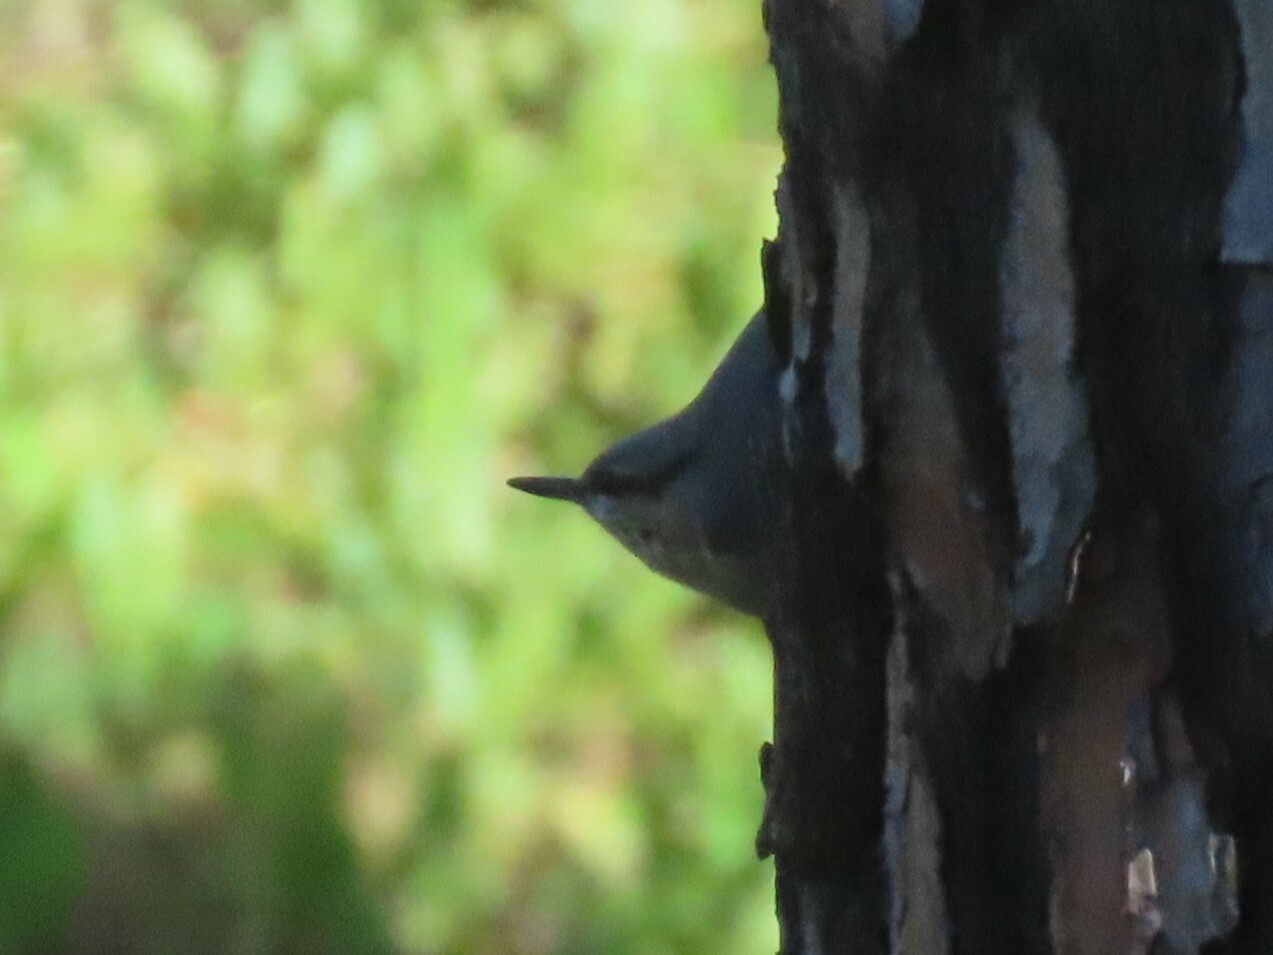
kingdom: Animalia
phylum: Chordata
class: Aves
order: Passeriformes
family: Sittidae
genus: Sitta
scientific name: Sitta europaea
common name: Eurasian nuthatch
